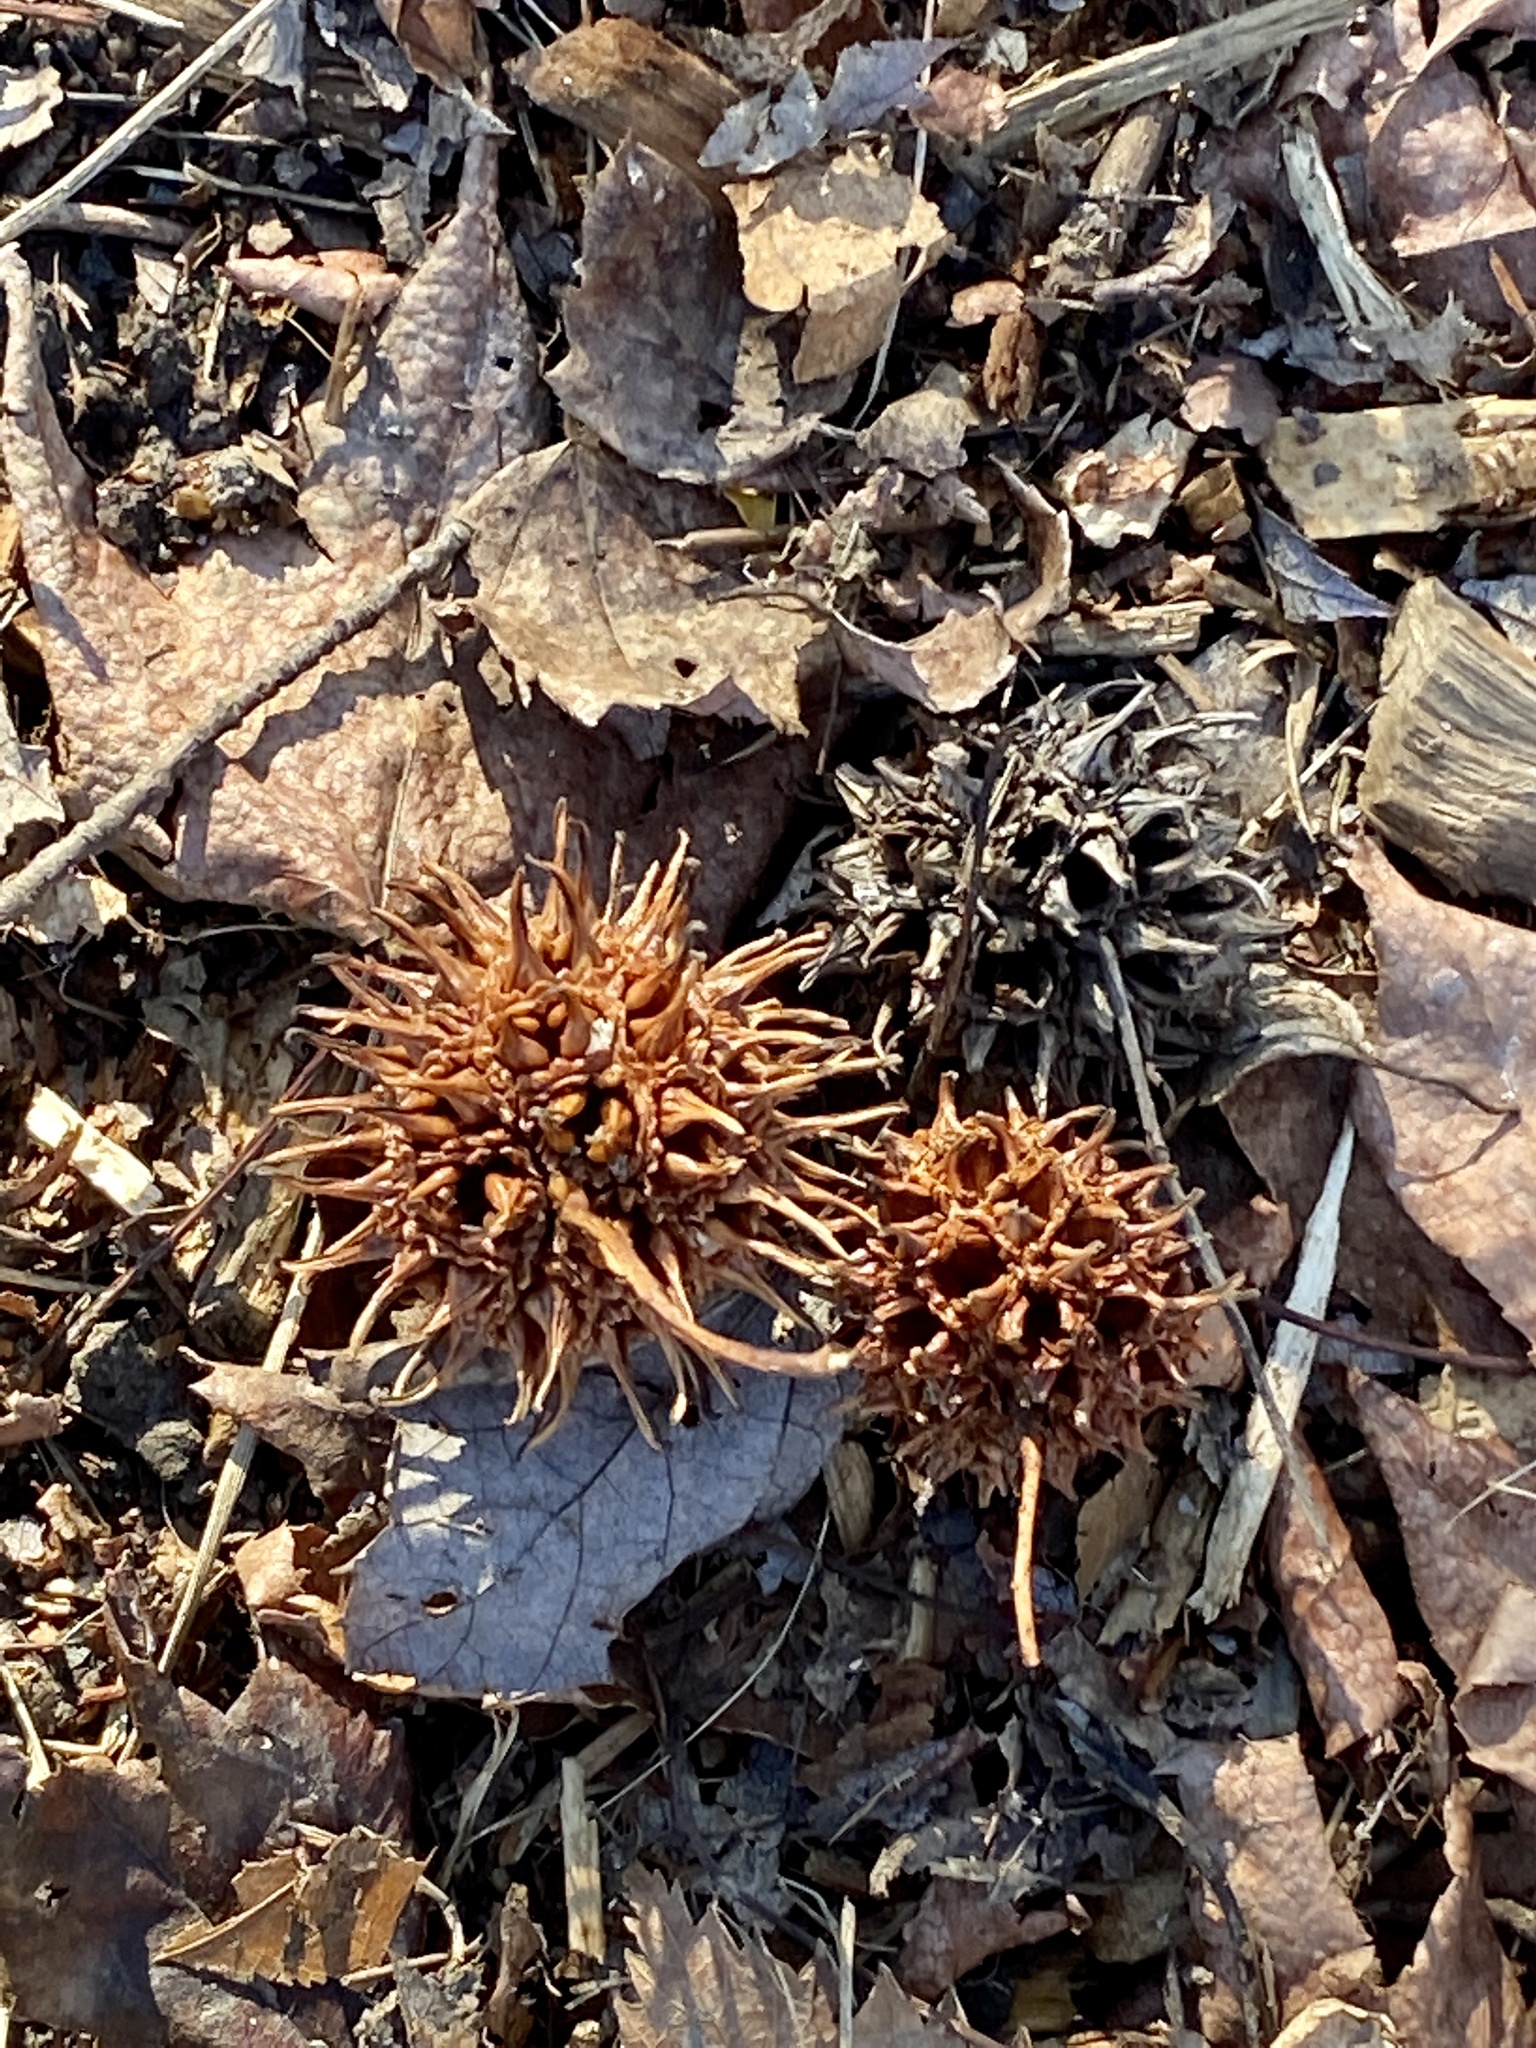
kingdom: Plantae
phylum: Tracheophyta
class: Magnoliopsida
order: Saxifragales
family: Altingiaceae
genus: Liquidambar
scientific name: Liquidambar styraciflua
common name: Sweet gum
